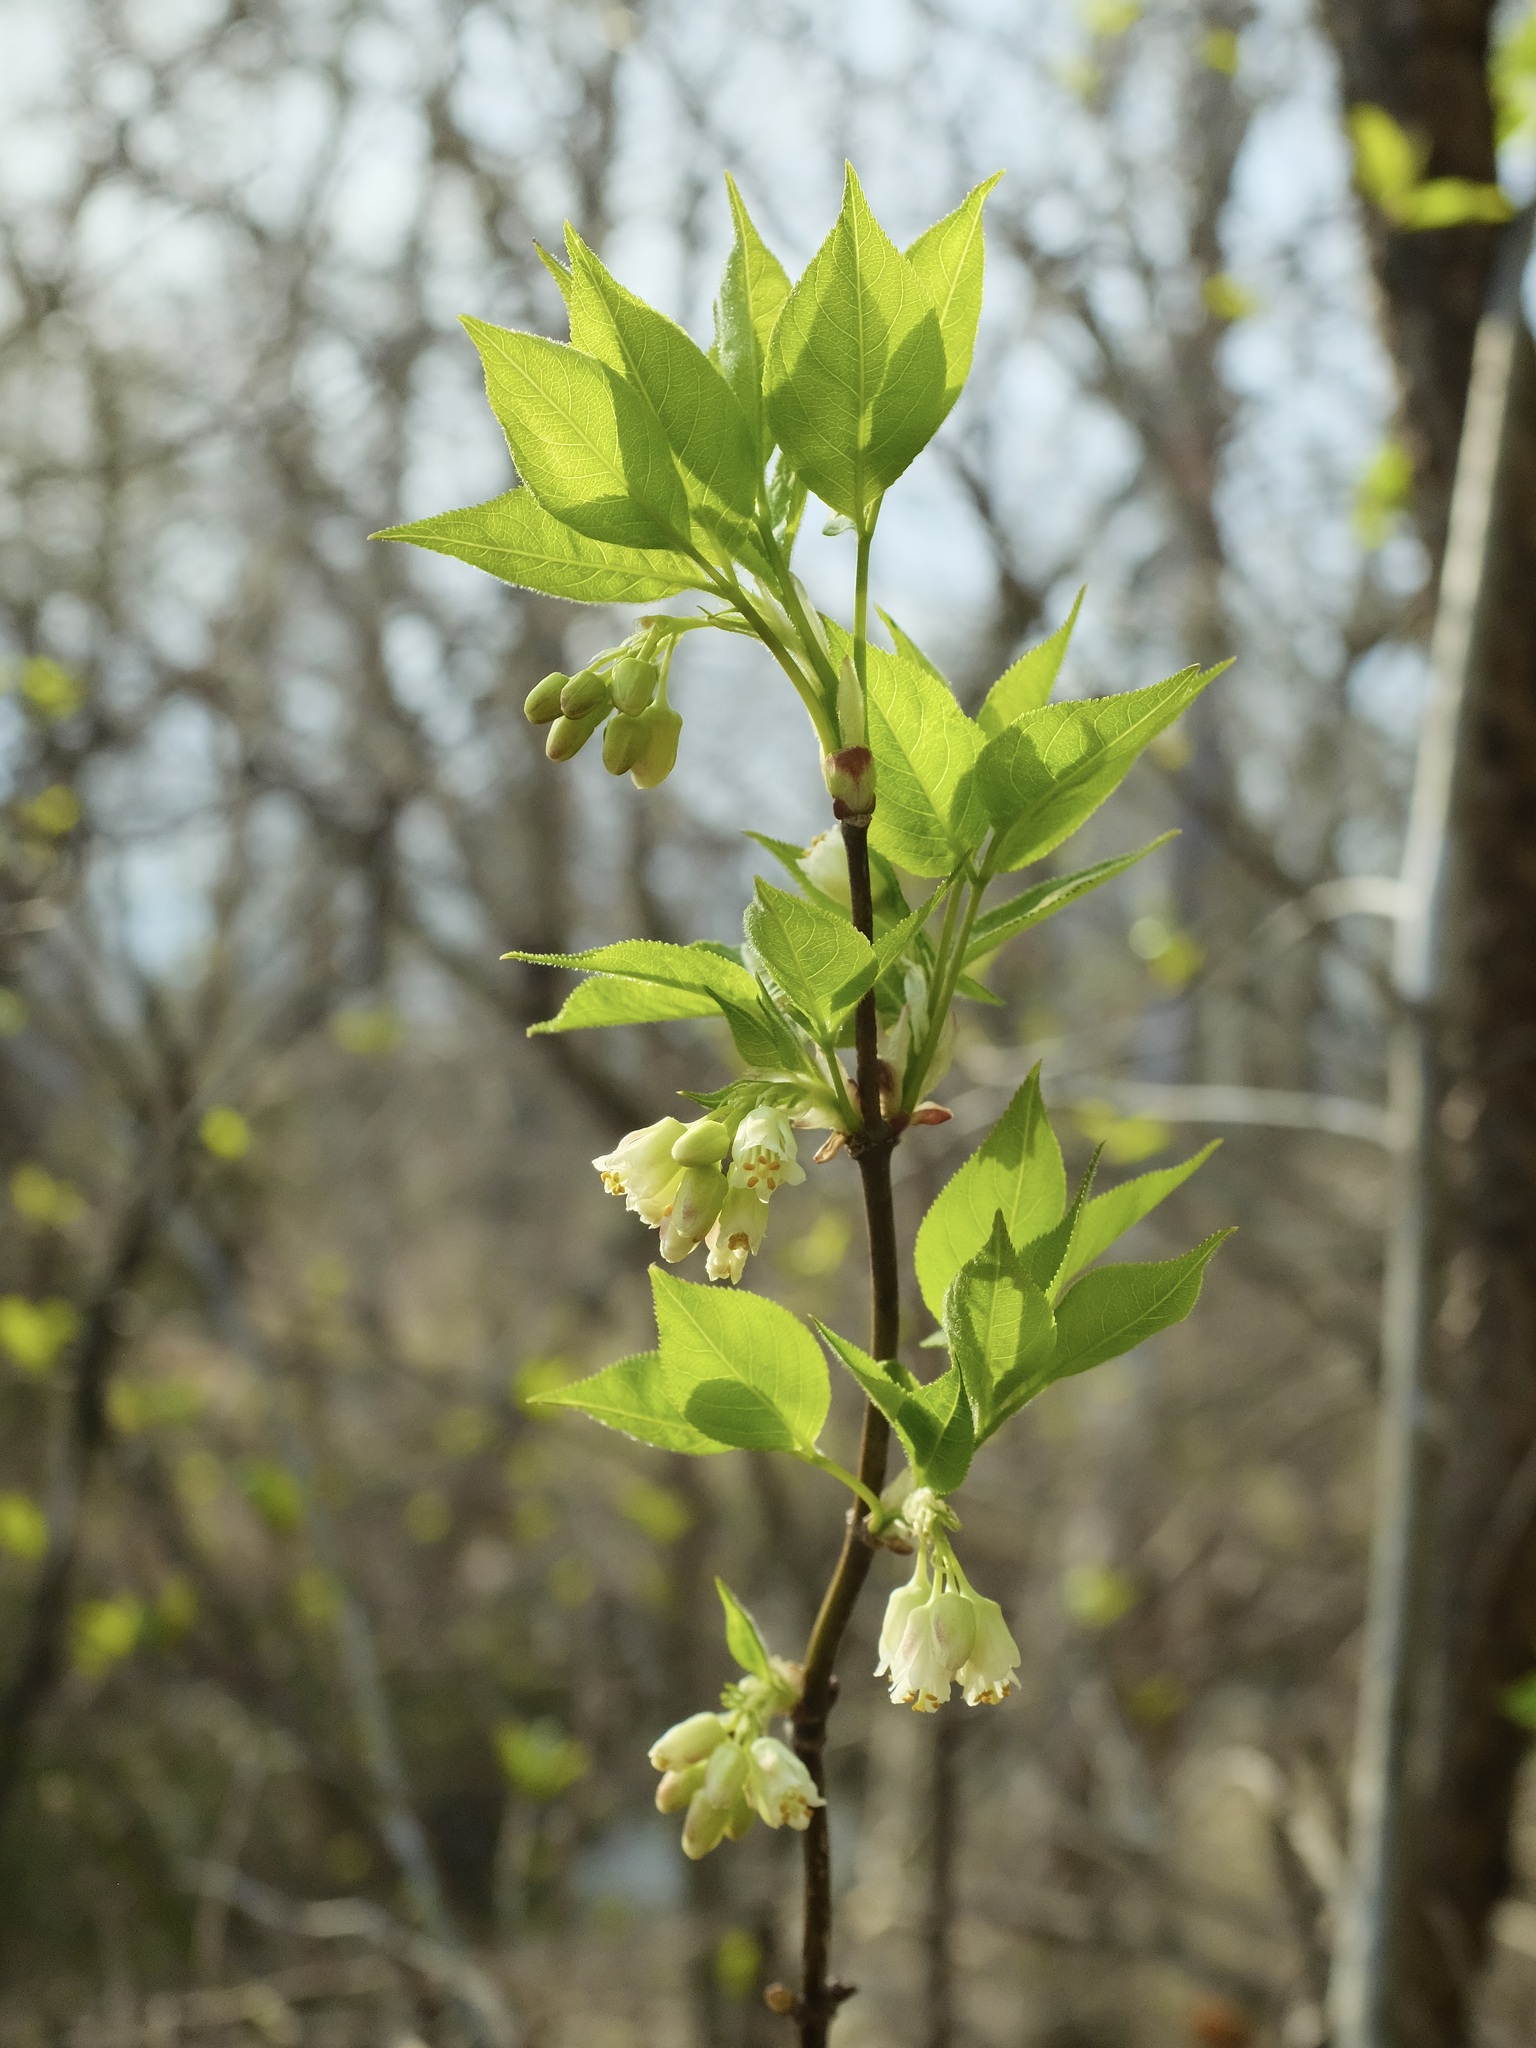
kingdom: Plantae
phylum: Tracheophyta
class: Magnoliopsida
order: Crossosomatales
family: Staphyleaceae
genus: Staphylea
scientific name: Staphylea trifolia
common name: American bladdernut
